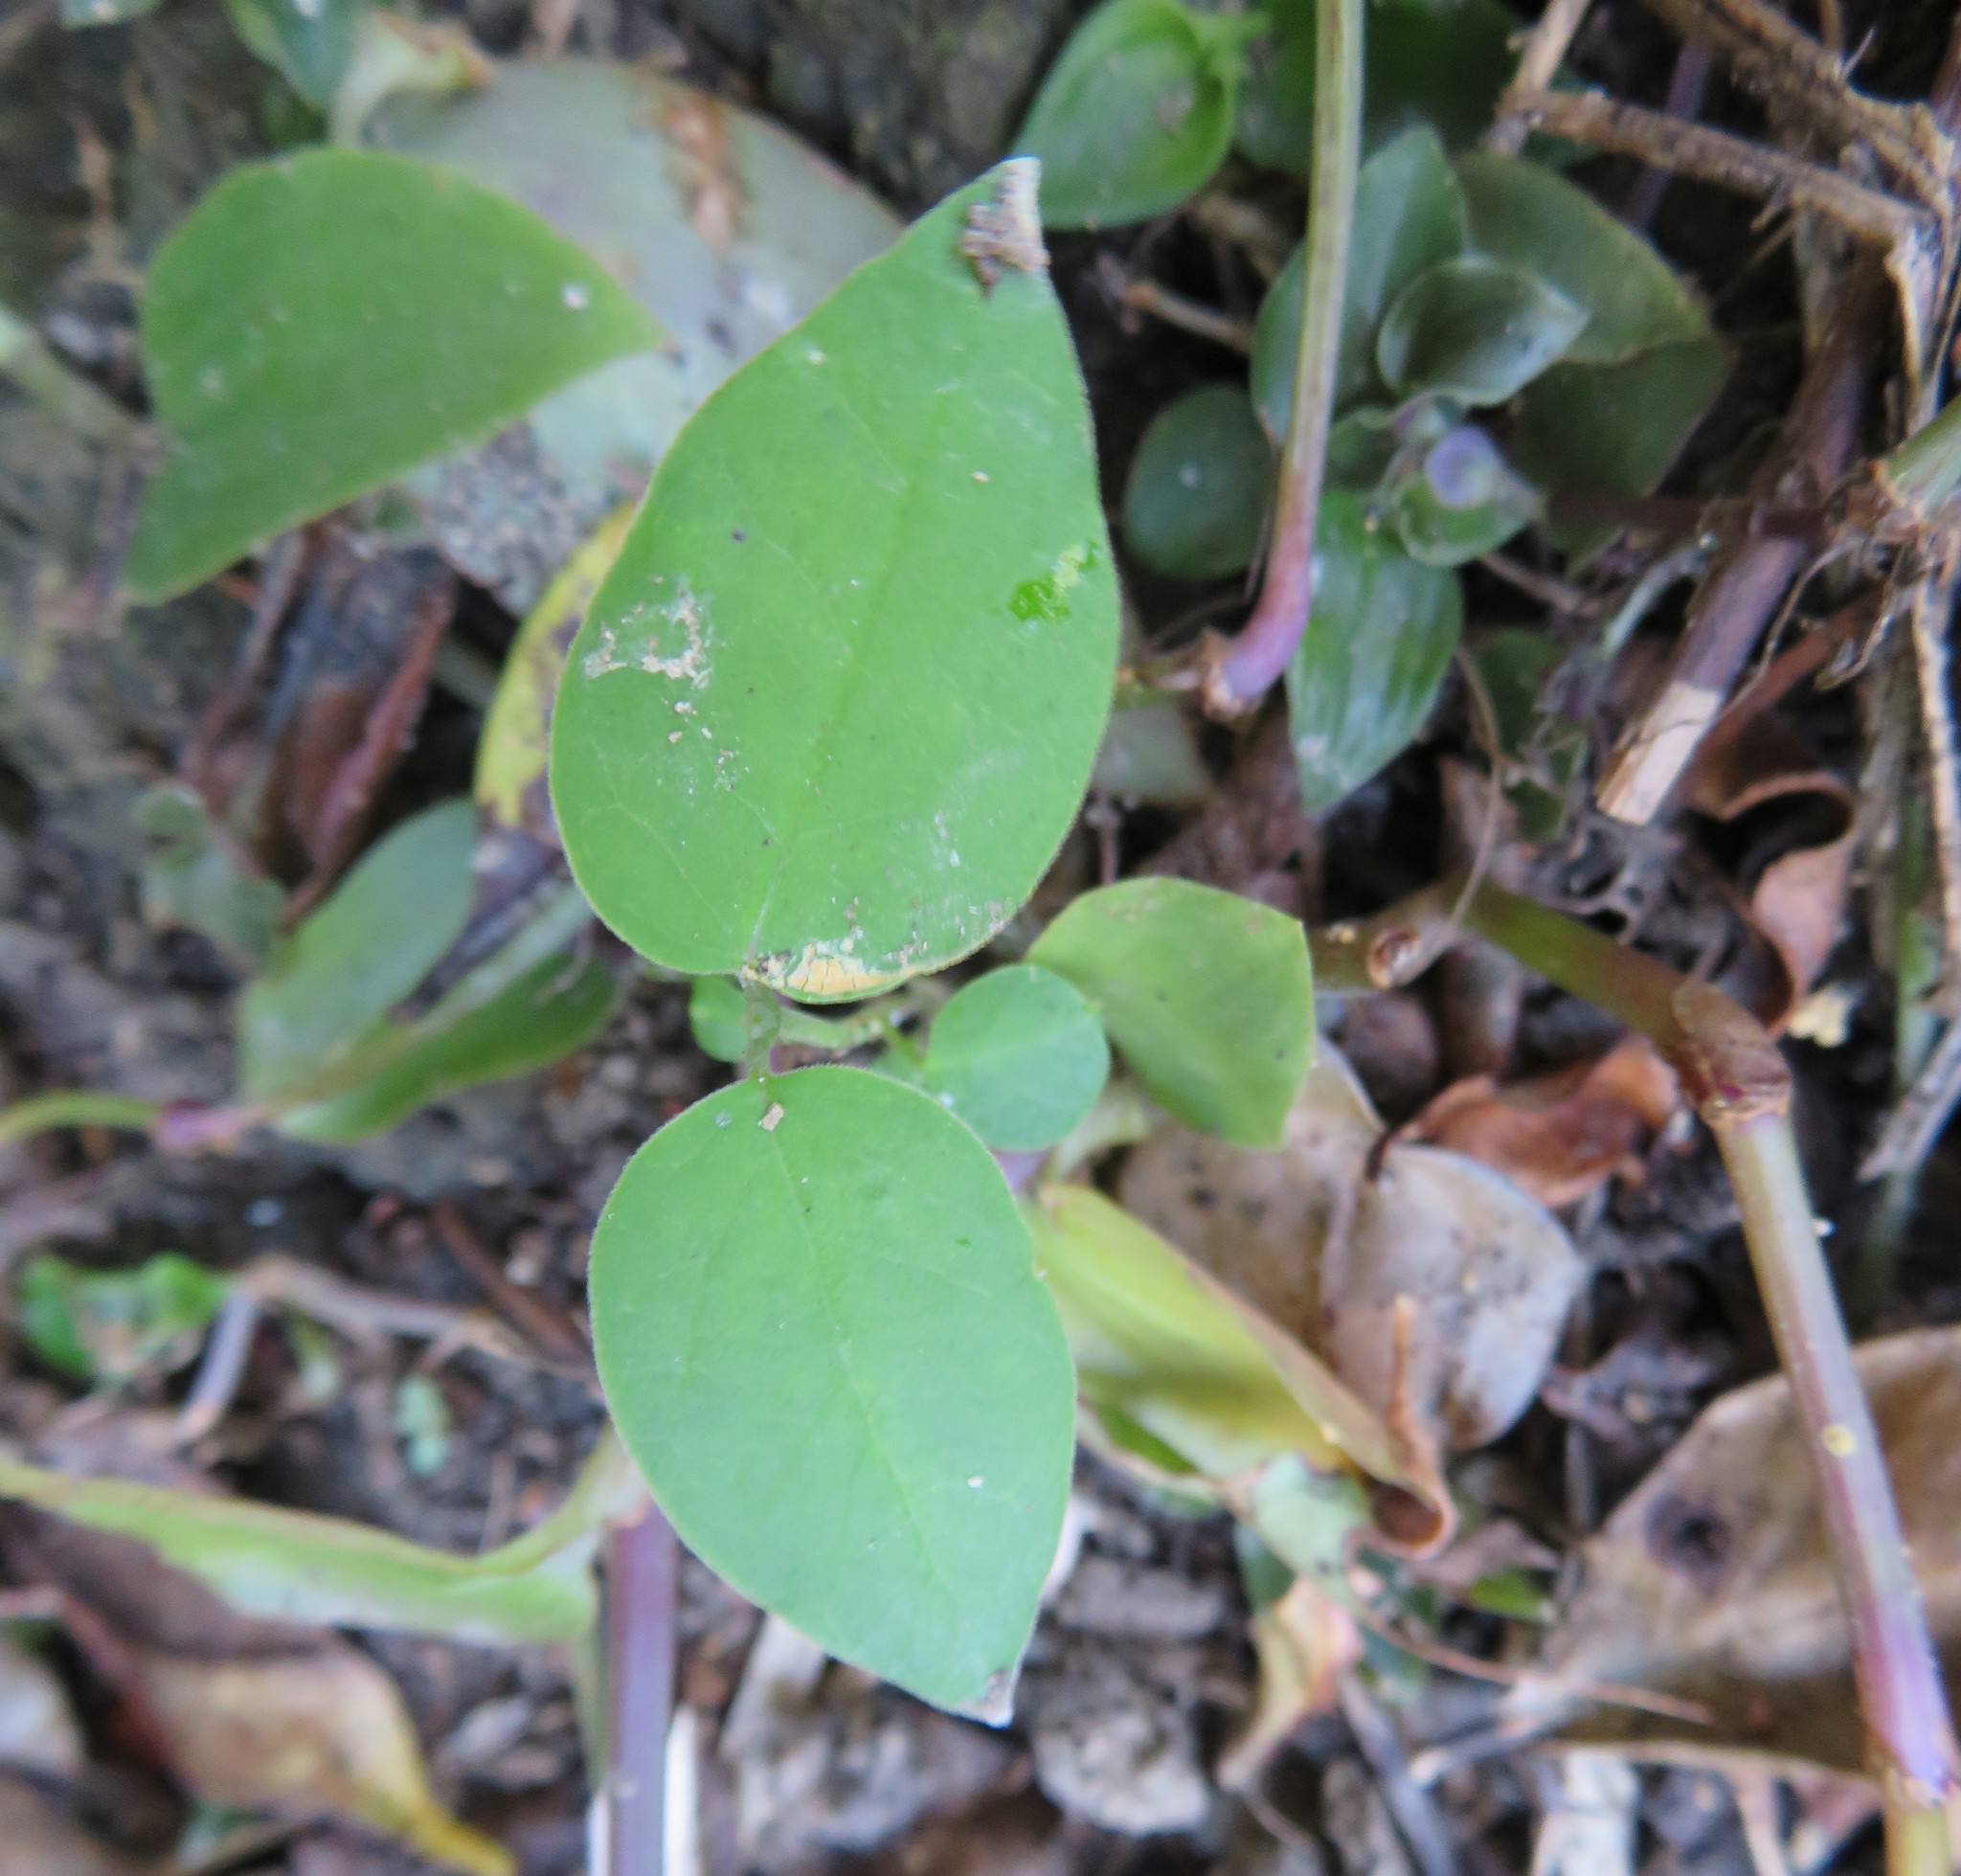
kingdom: Plantae
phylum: Tracheophyta
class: Magnoliopsida
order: Gentianales
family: Apocynaceae
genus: Araujia
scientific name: Araujia sericifera
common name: White bladderflower
